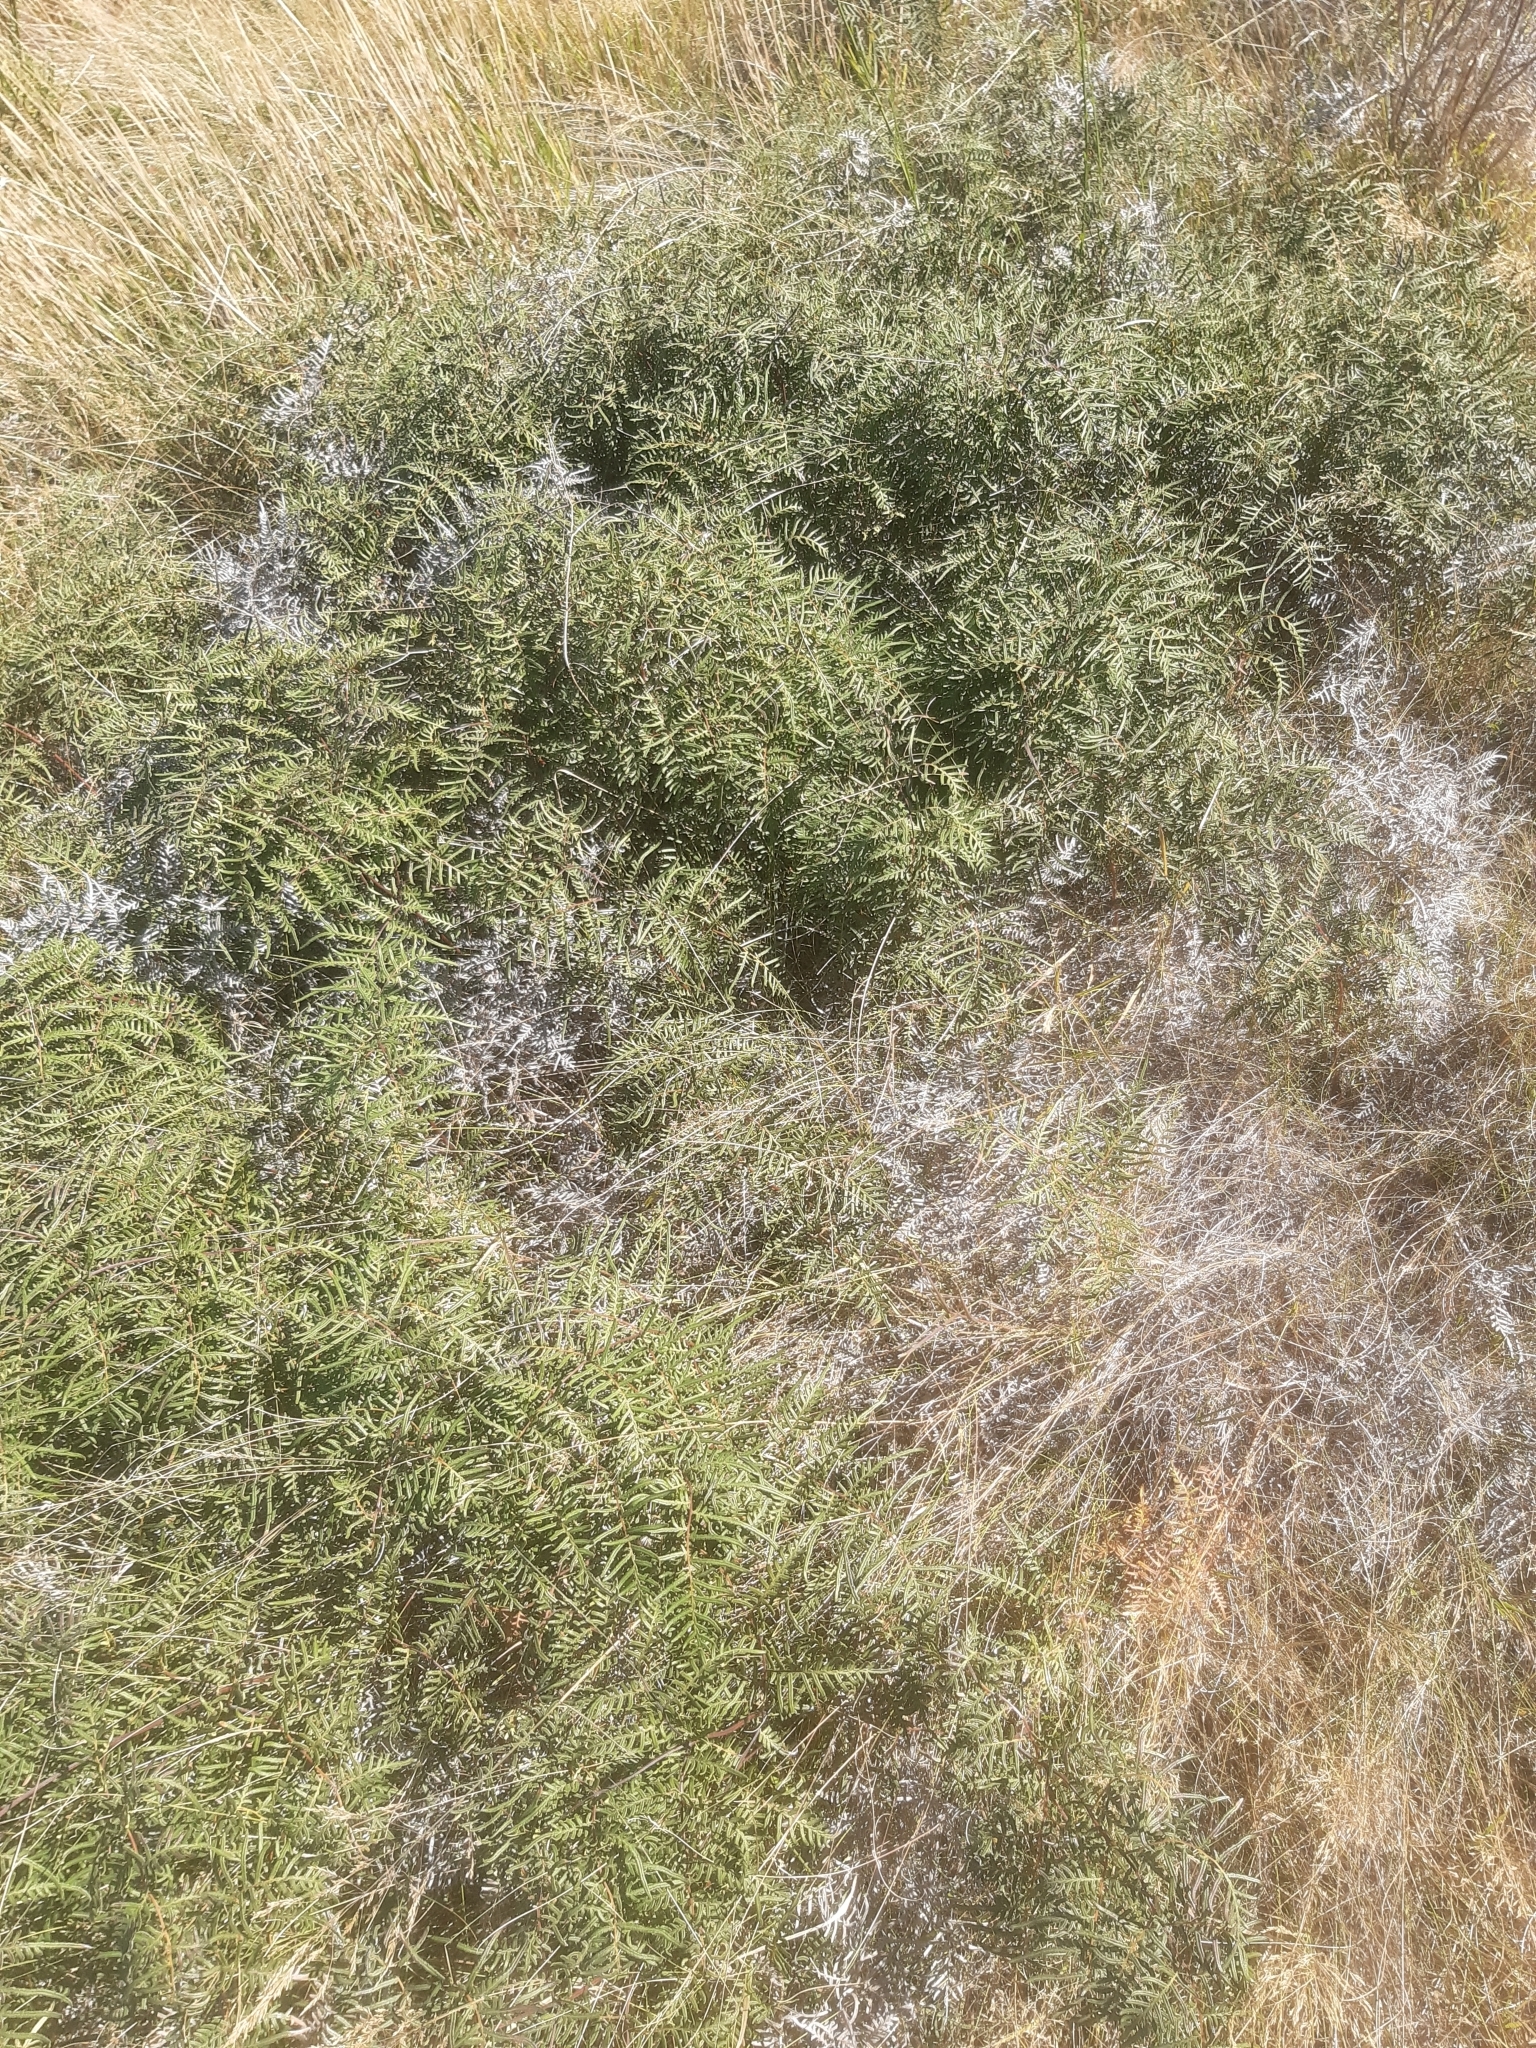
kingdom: Plantae
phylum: Tracheophyta
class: Polypodiopsida
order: Polypodiales
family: Dennstaedtiaceae
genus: Pteridium
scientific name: Pteridium esculentum
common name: Bracken fern
